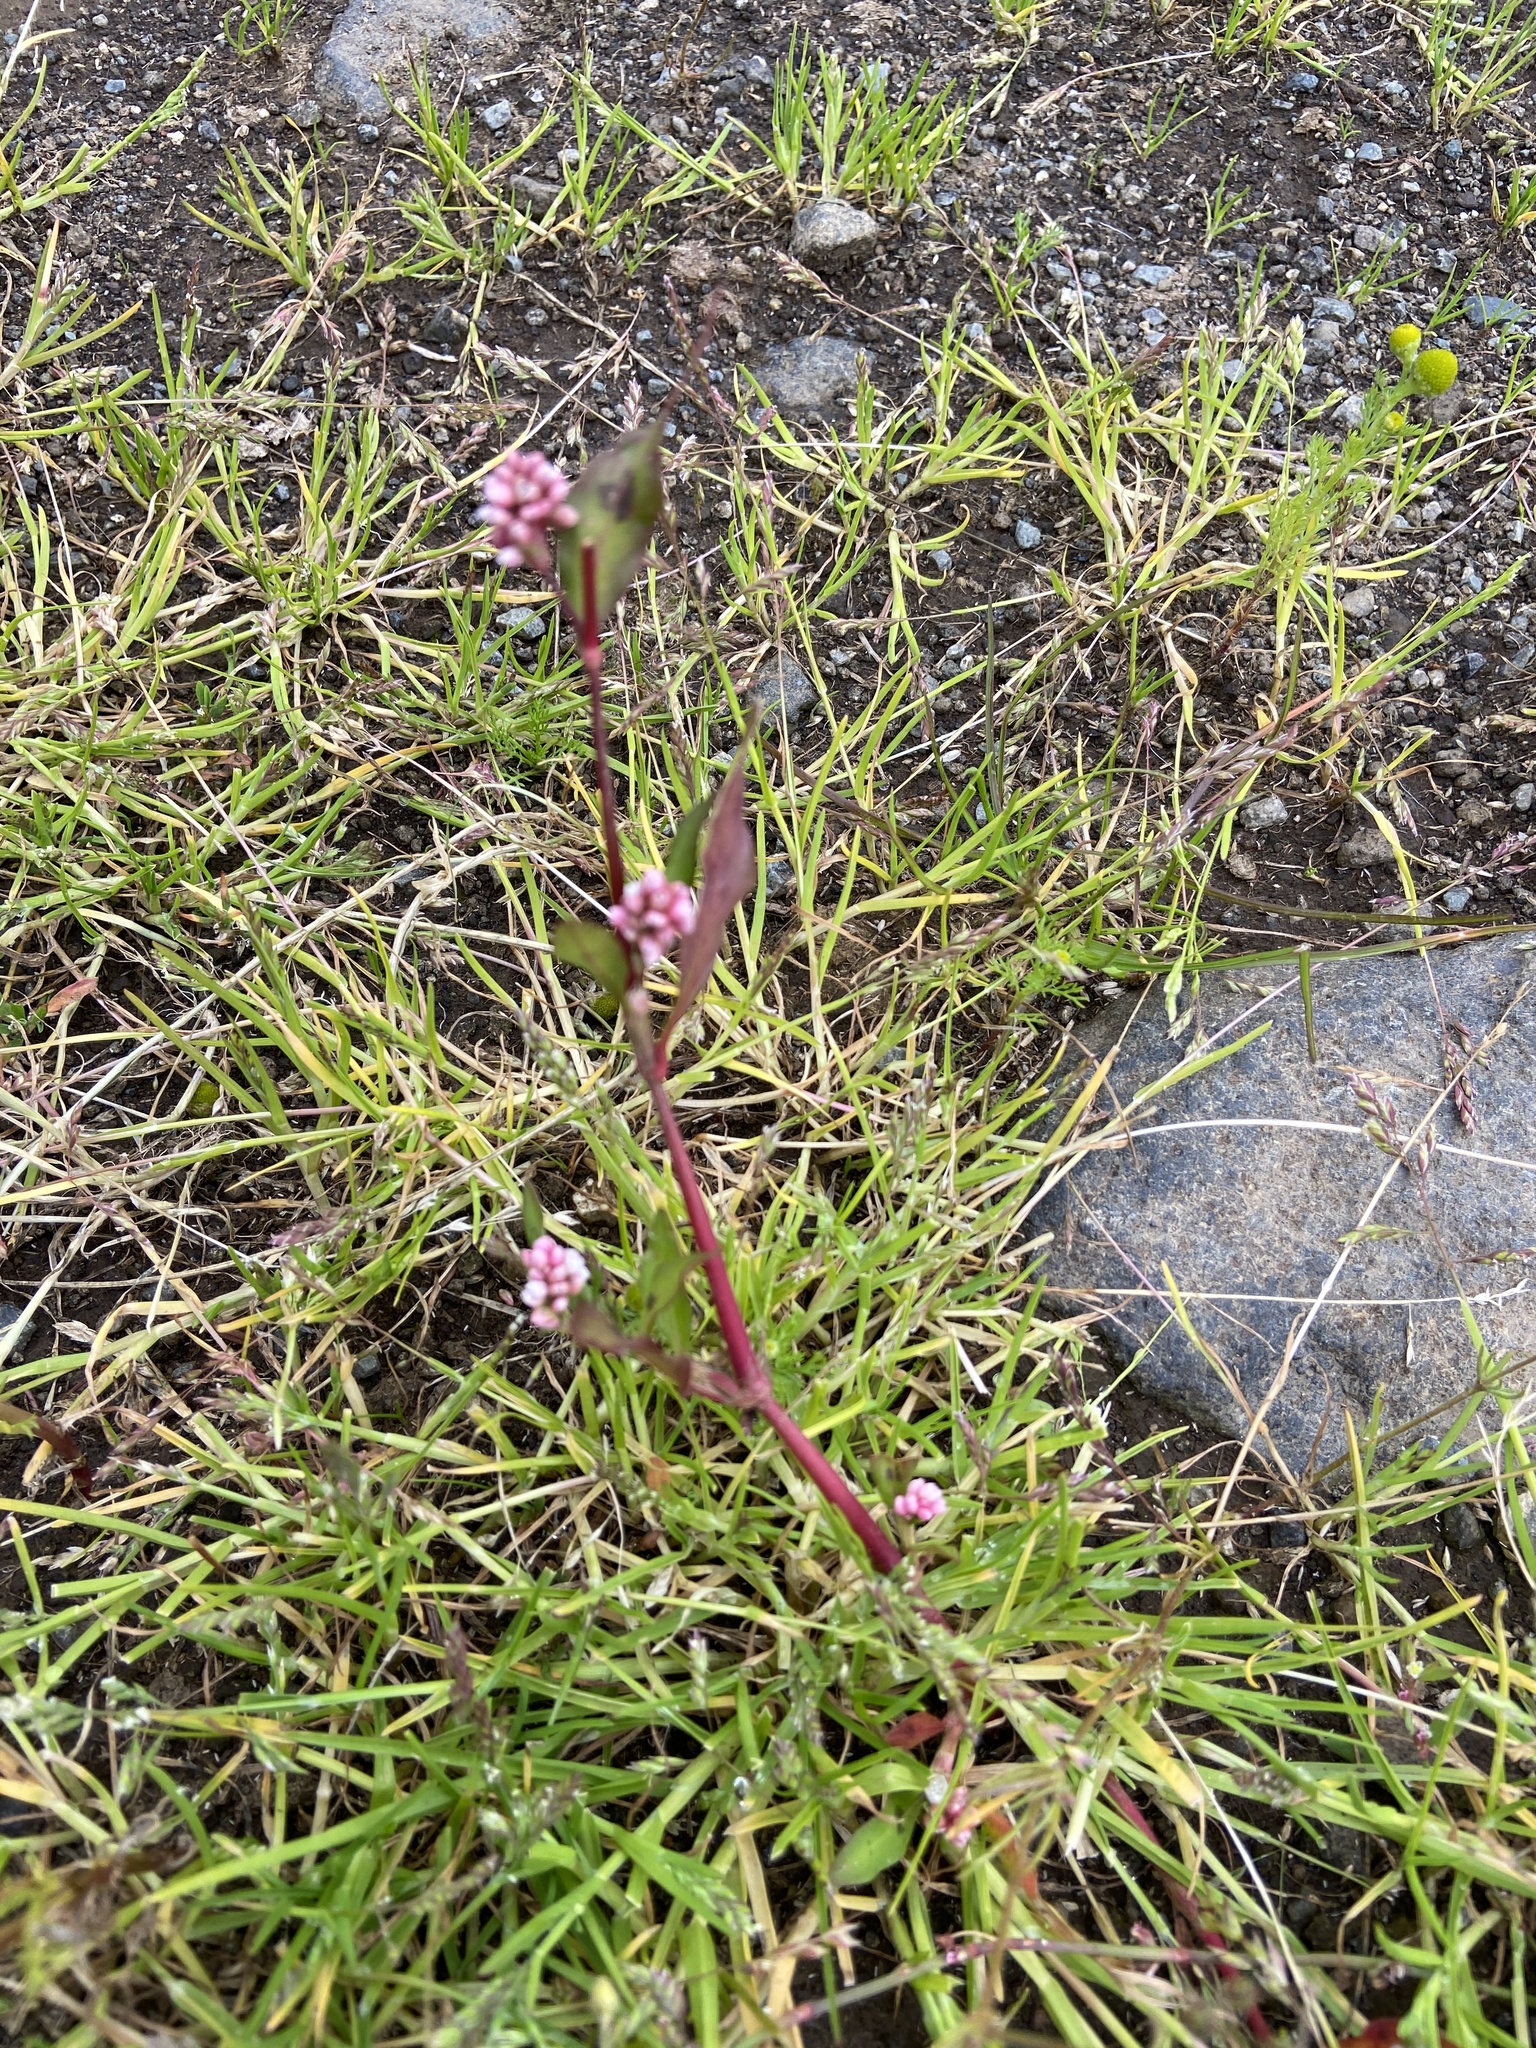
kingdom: Plantae
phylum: Tracheophyta
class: Magnoliopsida
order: Caryophyllales
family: Polygonaceae
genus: Persicaria
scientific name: Persicaria maculosa
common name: Redshank
